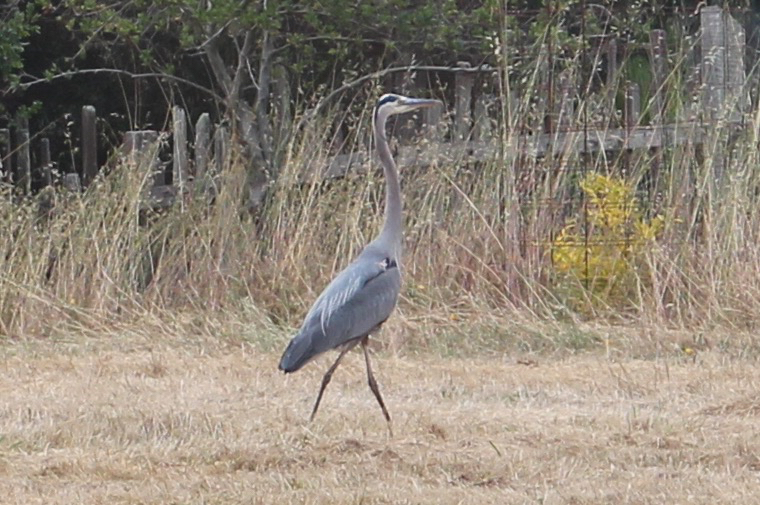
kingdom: Animalia
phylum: Chordata
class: Aves
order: Pelecaniformes
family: Ardeidae
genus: Ardea
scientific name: Ardea herodias
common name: Great blue heron
